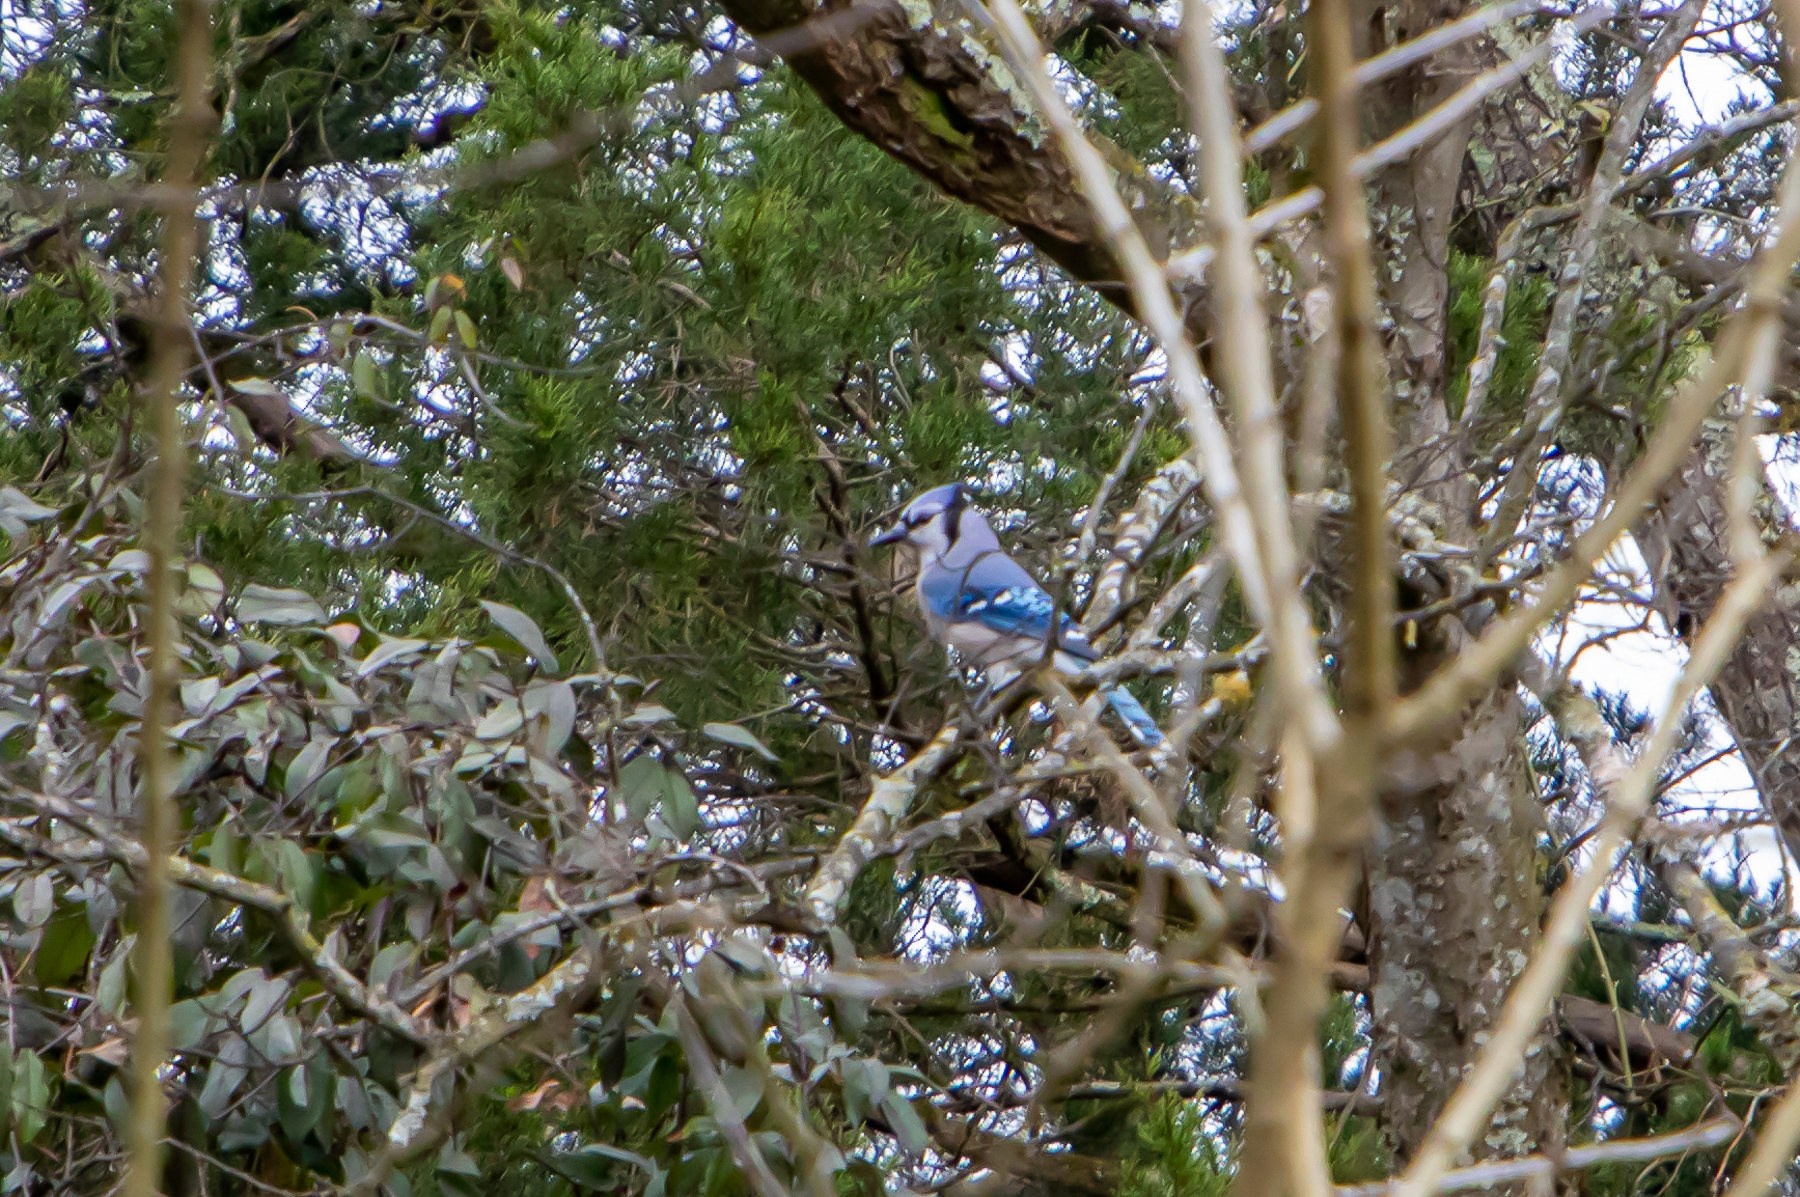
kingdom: Animalia
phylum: Chordata
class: Aves
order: Passeriformes
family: Corvidae
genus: Cyanocitta
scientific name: Cyanocitta cristata
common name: Blue jay
